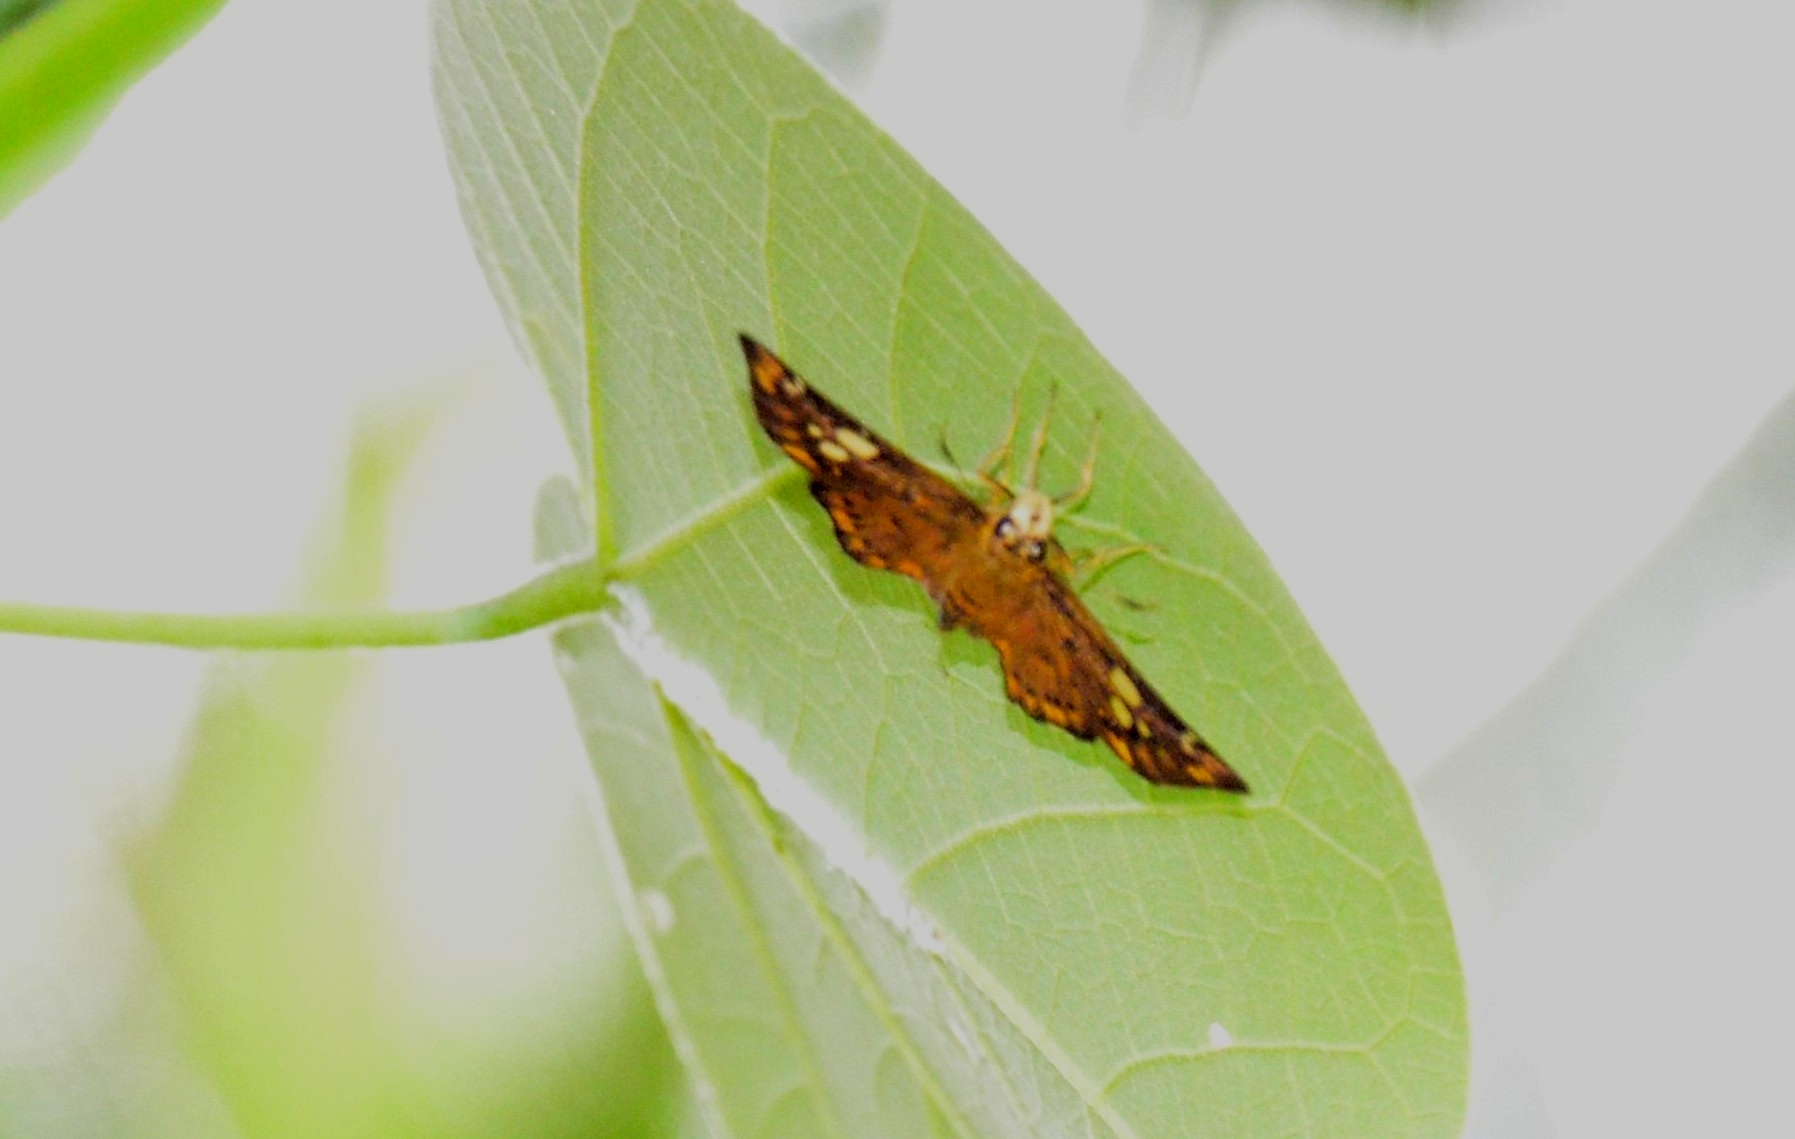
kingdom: Animalia
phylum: Arthropoda
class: Insecta
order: Lepidoptera
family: Hesperiidae
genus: Coladenia
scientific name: Coladenia
